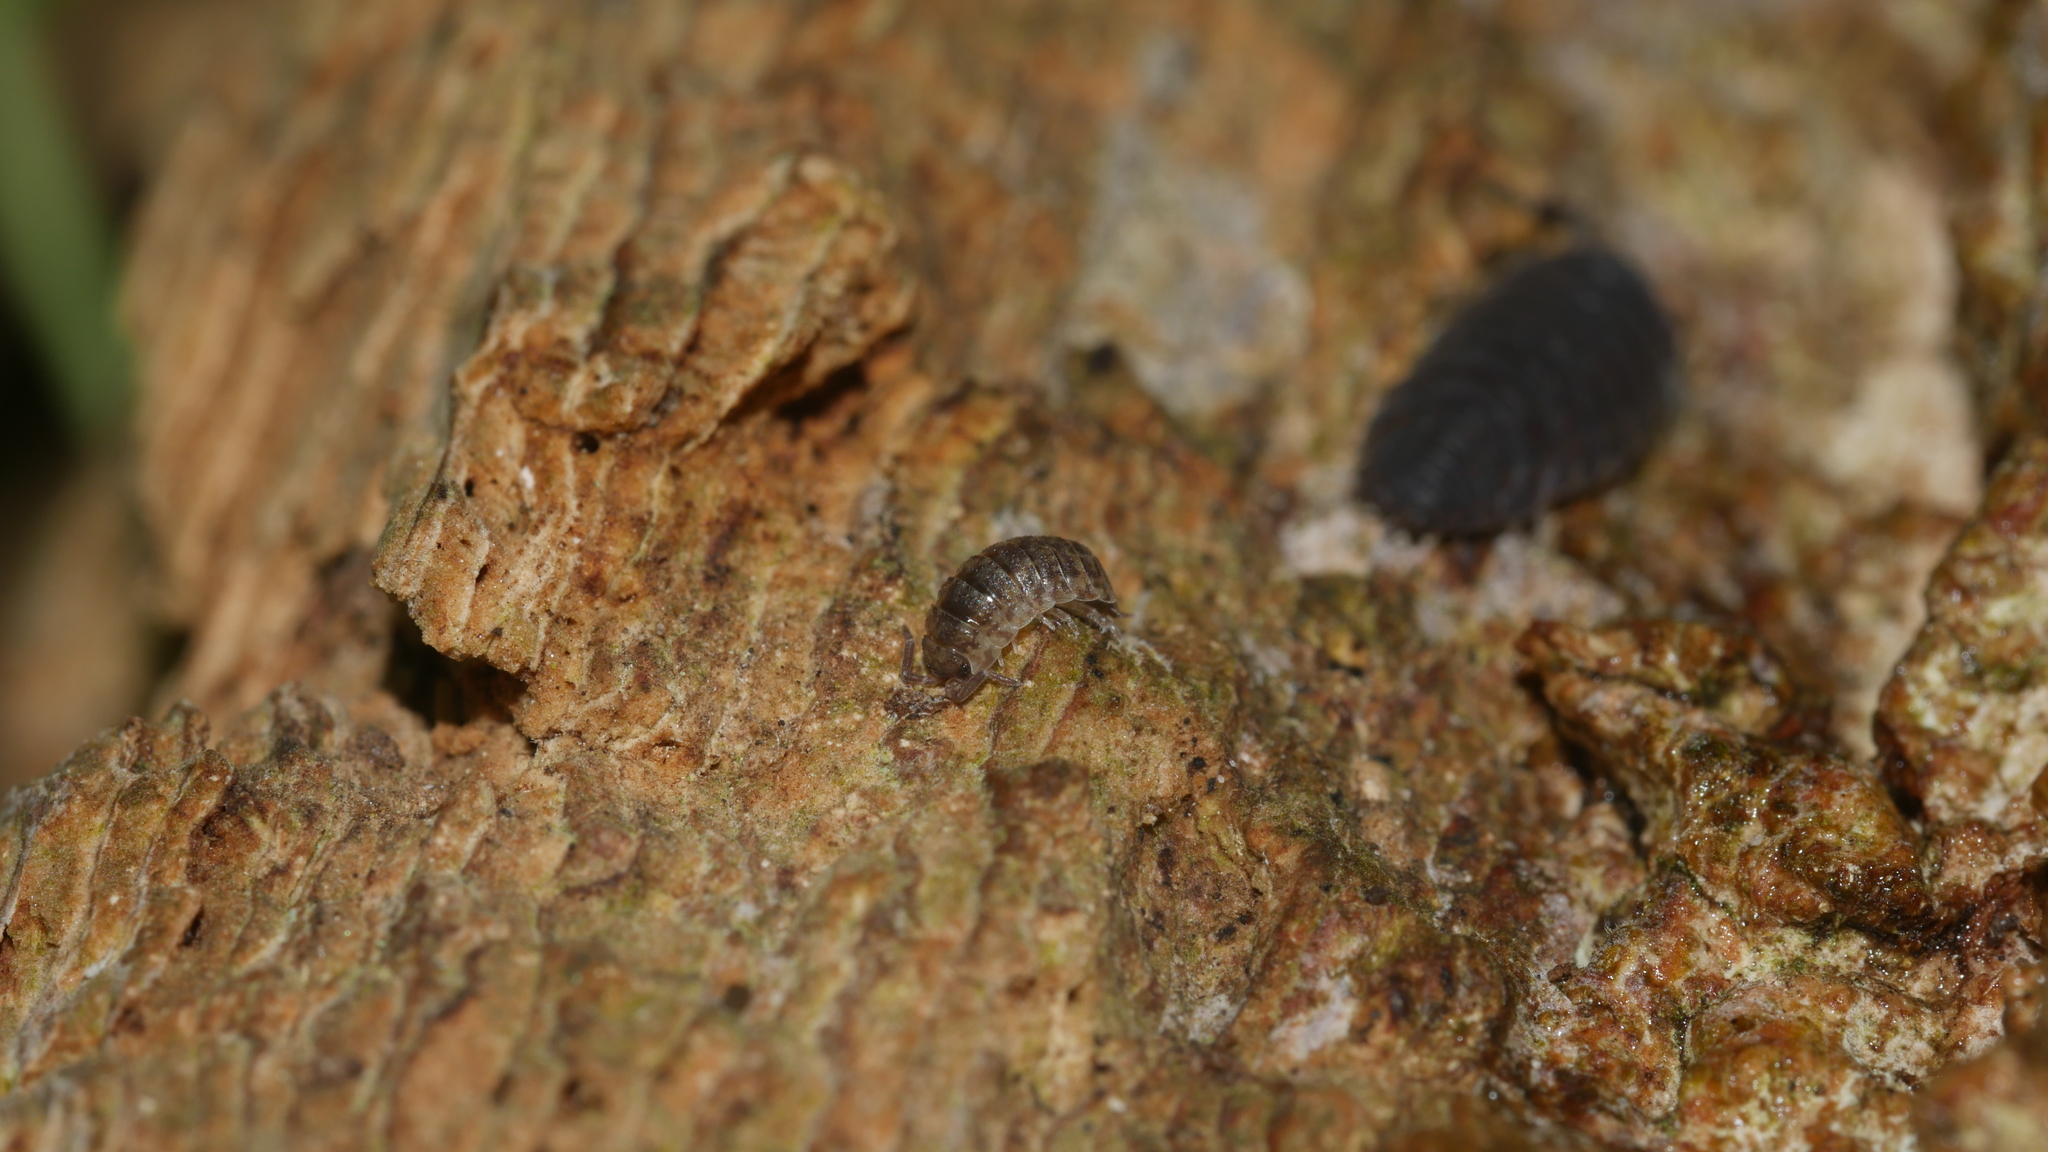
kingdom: Animalia
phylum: Arthropoda
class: Malacostraca
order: Isopoda
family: Porcellionidae
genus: Porcellio
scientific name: Porcellio scaber
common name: Common rough woodlouse
